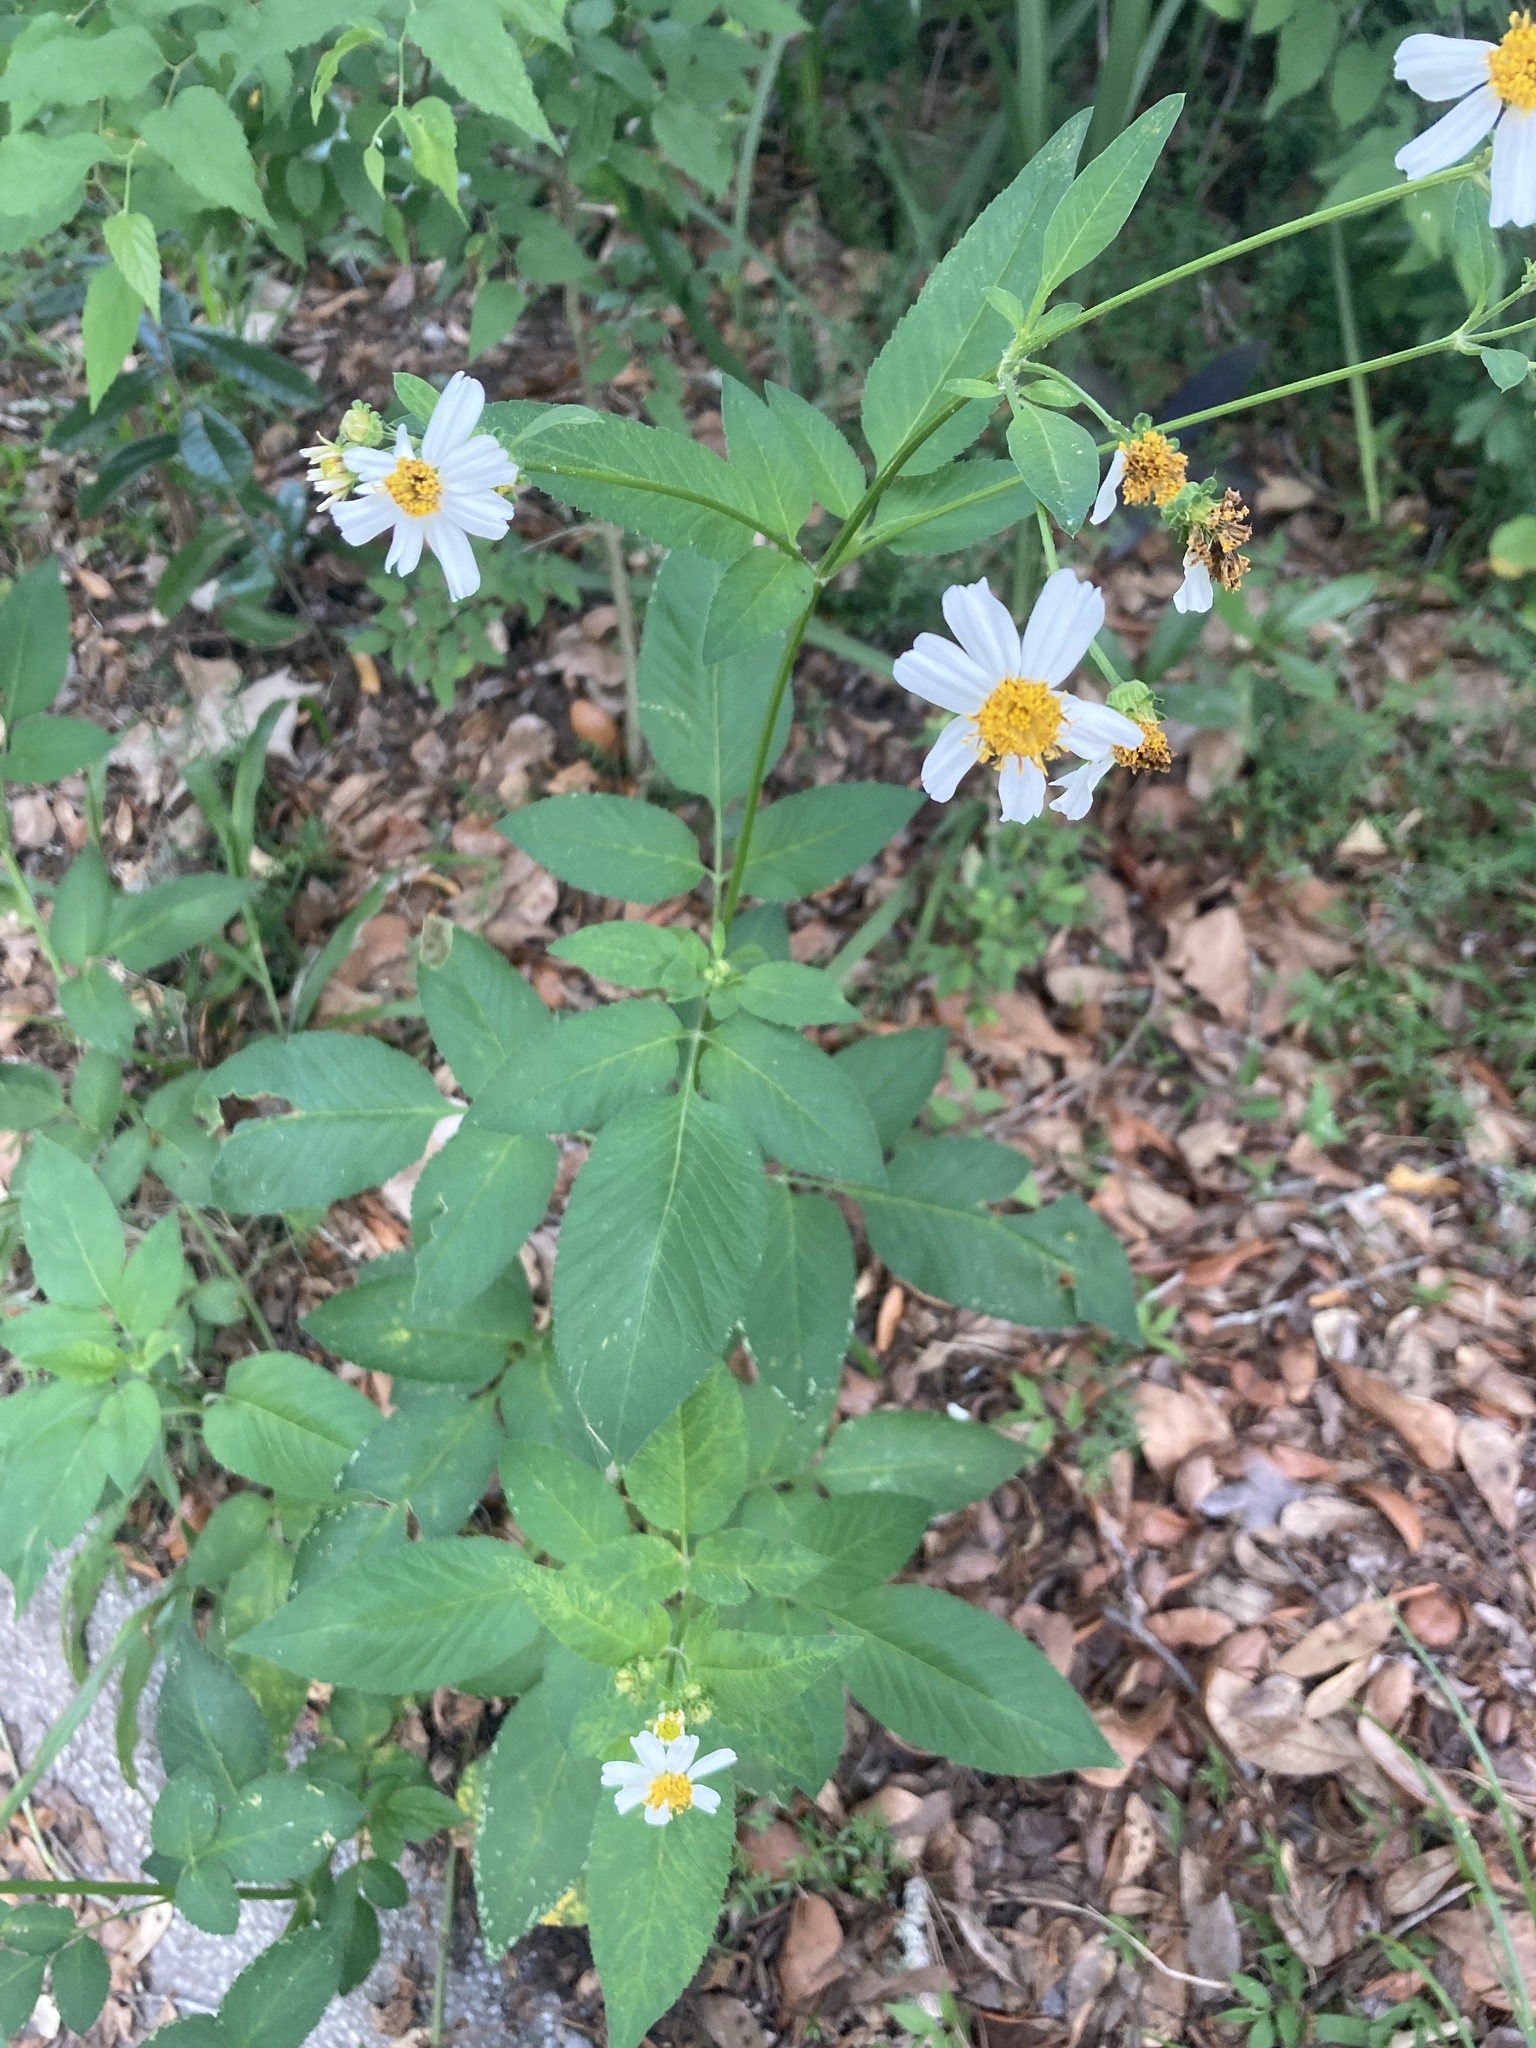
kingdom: Plantae
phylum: Tracheophyta
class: Magnoliopsida
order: Asterales
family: Asteraceae
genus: Bidens
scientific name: Bidens alba
